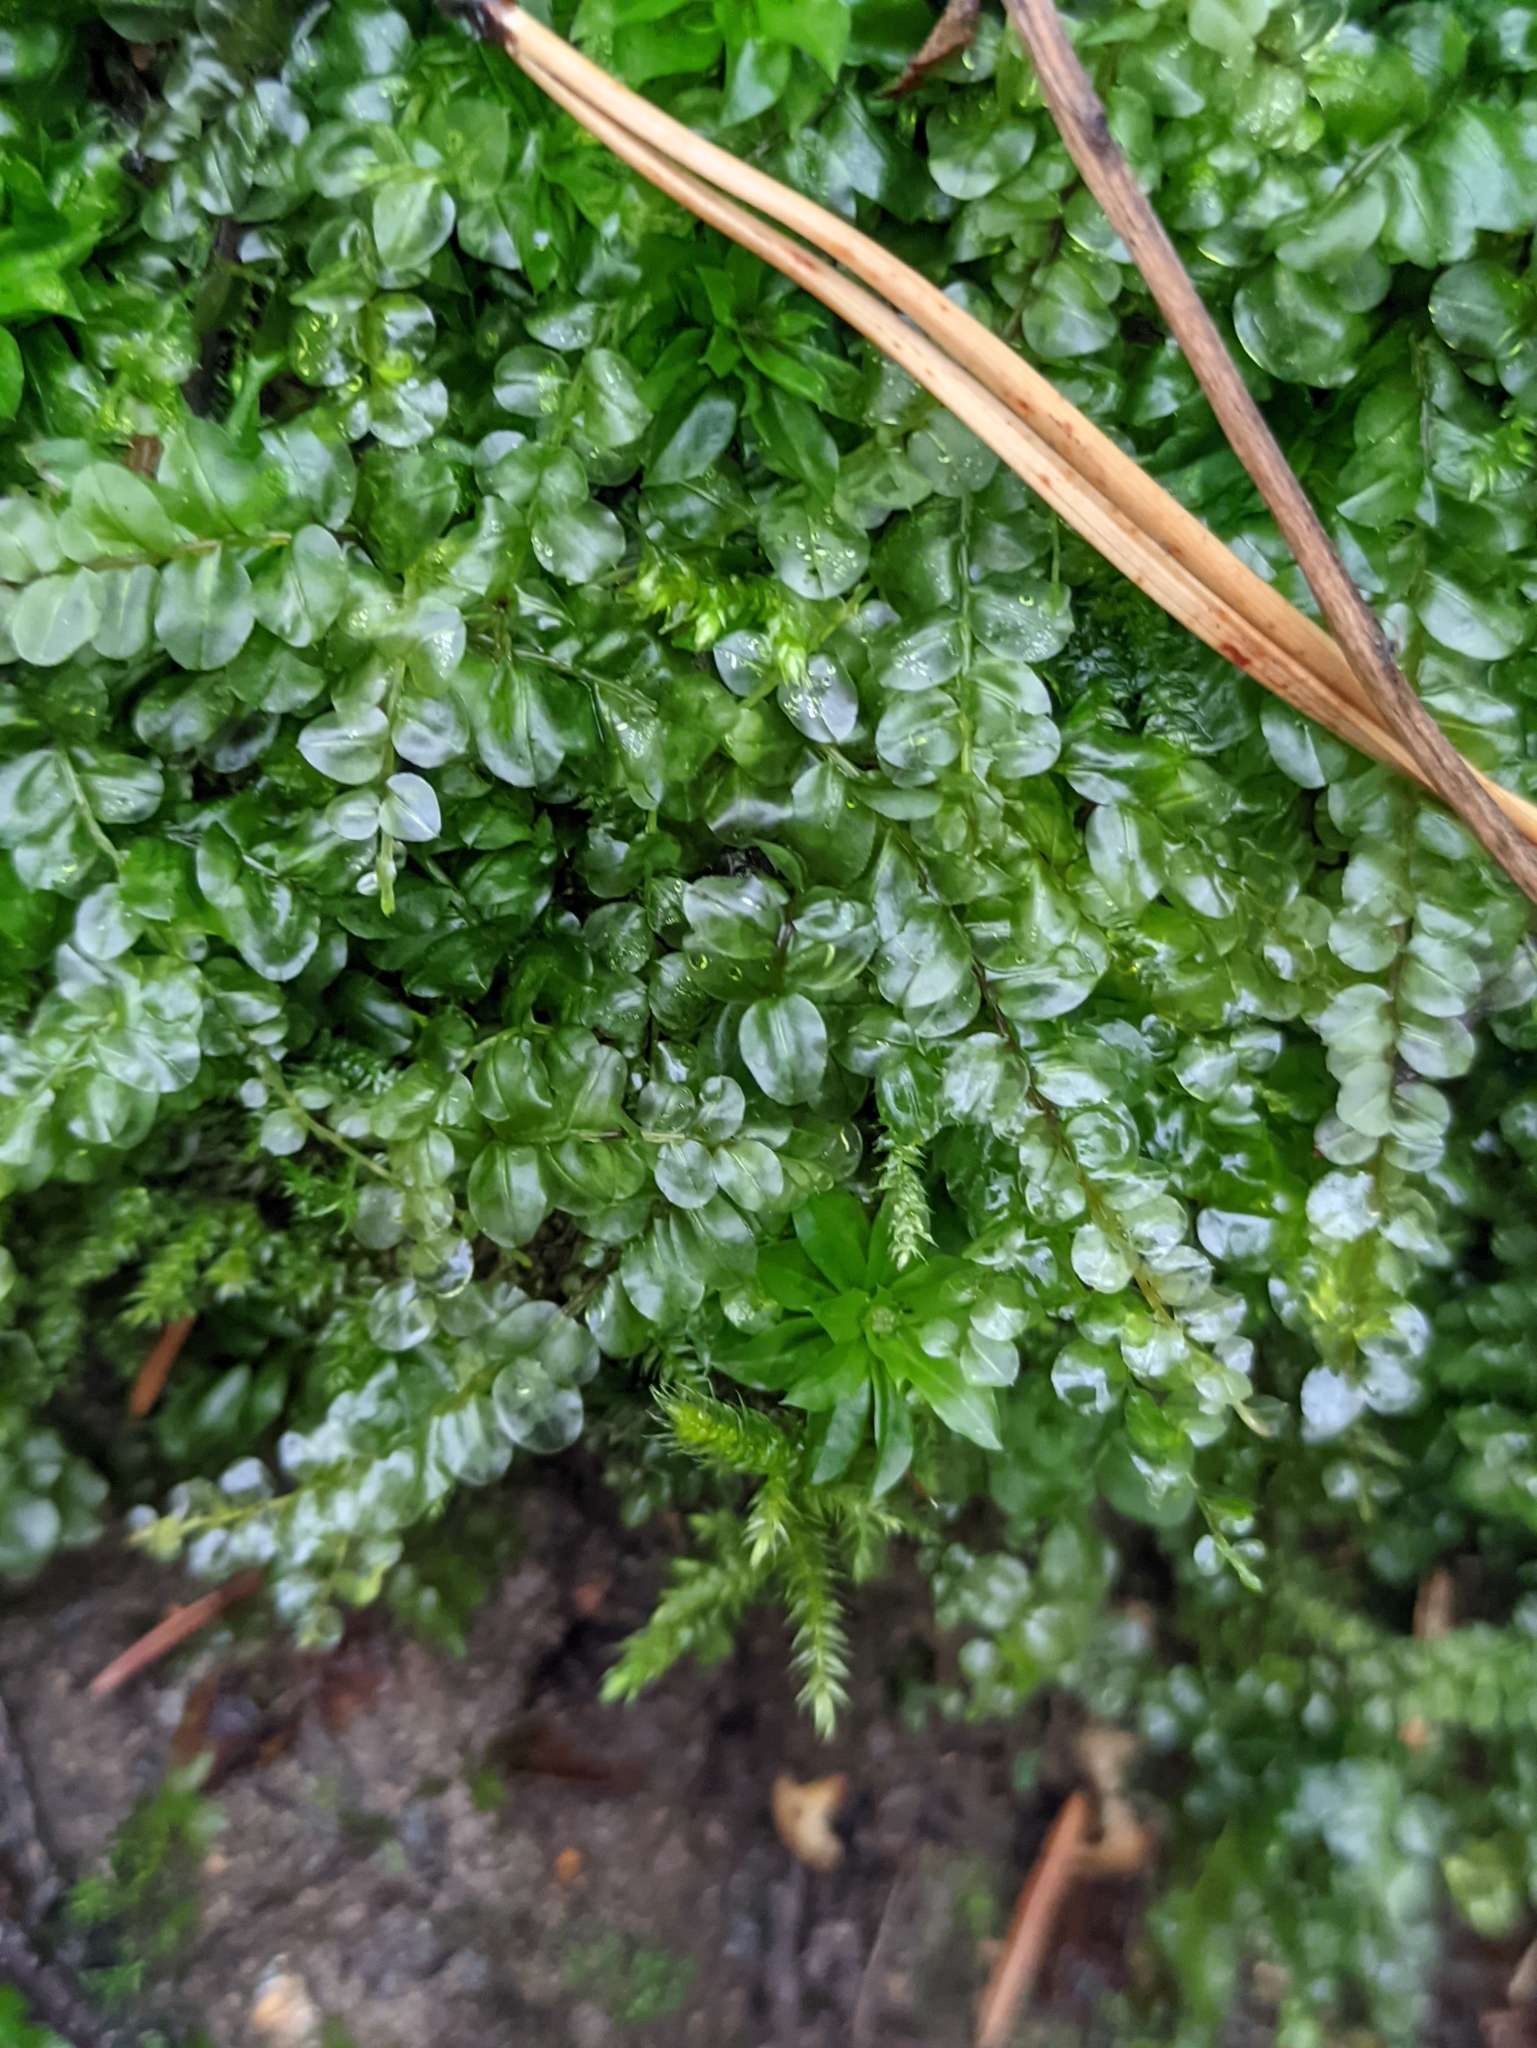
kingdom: Plantae
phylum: Bryophyta
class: Bryopsida
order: Bryales
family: Mniaceae
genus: Plagiomnium
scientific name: Plagiomnium affine
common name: Many-fruited thyme-moss
